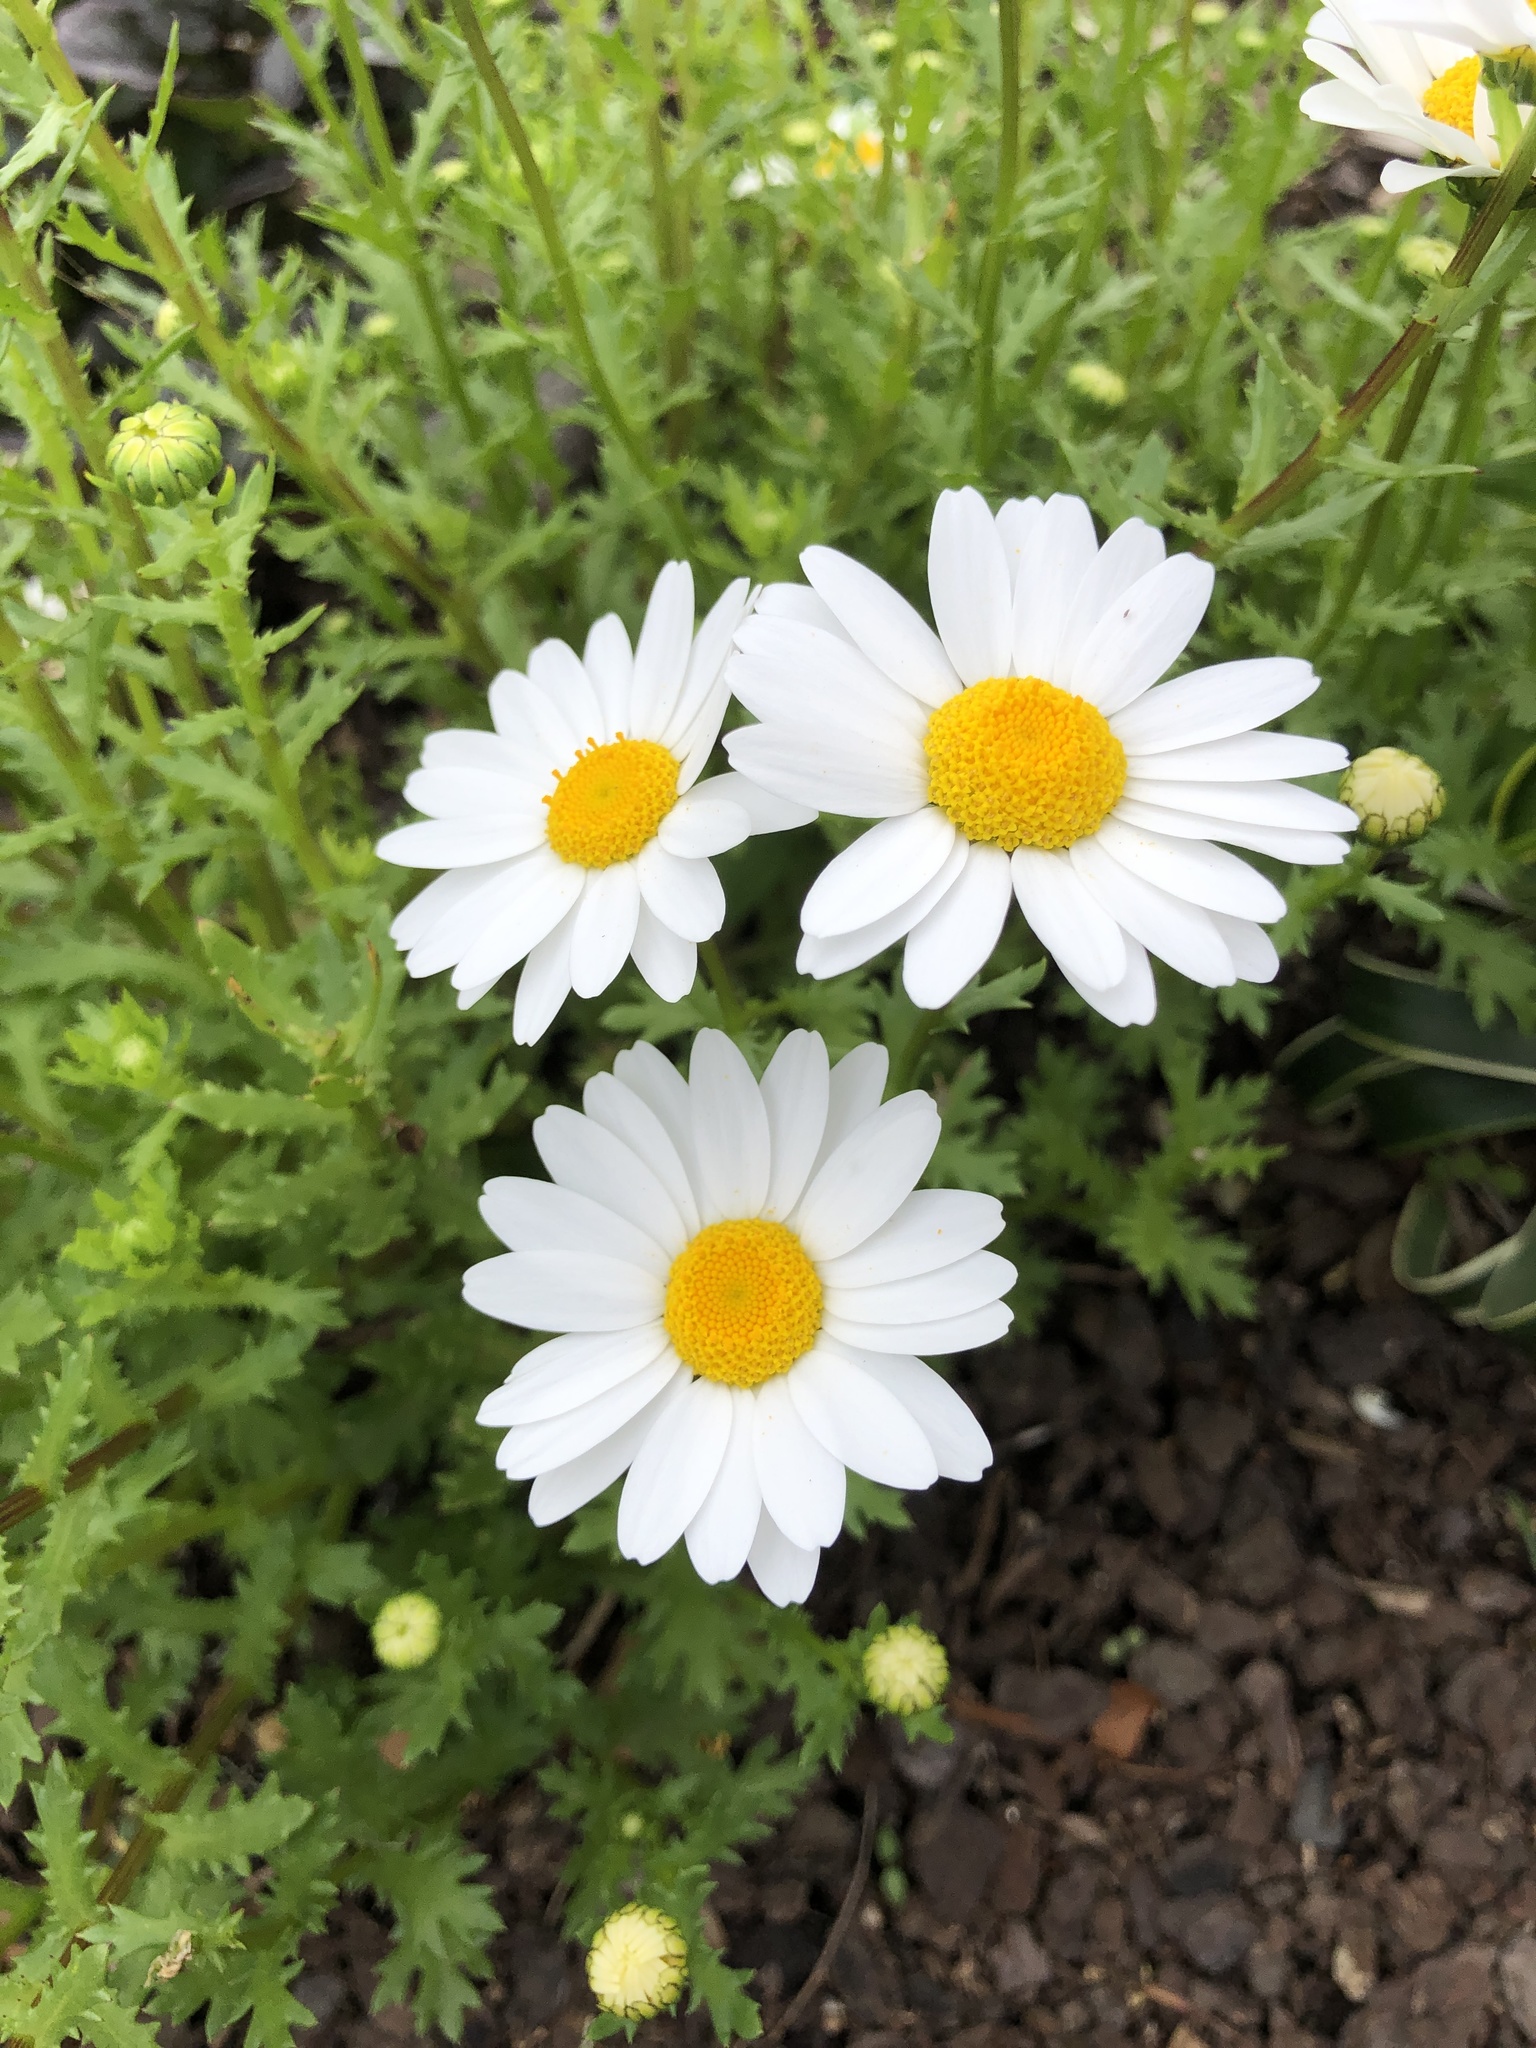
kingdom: Plantae
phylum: Tracheophyta
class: Magnoliopsida
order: Asterales
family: Asteraceae
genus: Leucanthemum
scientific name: Leucanthemum vulgare
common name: Oxeye daisy
